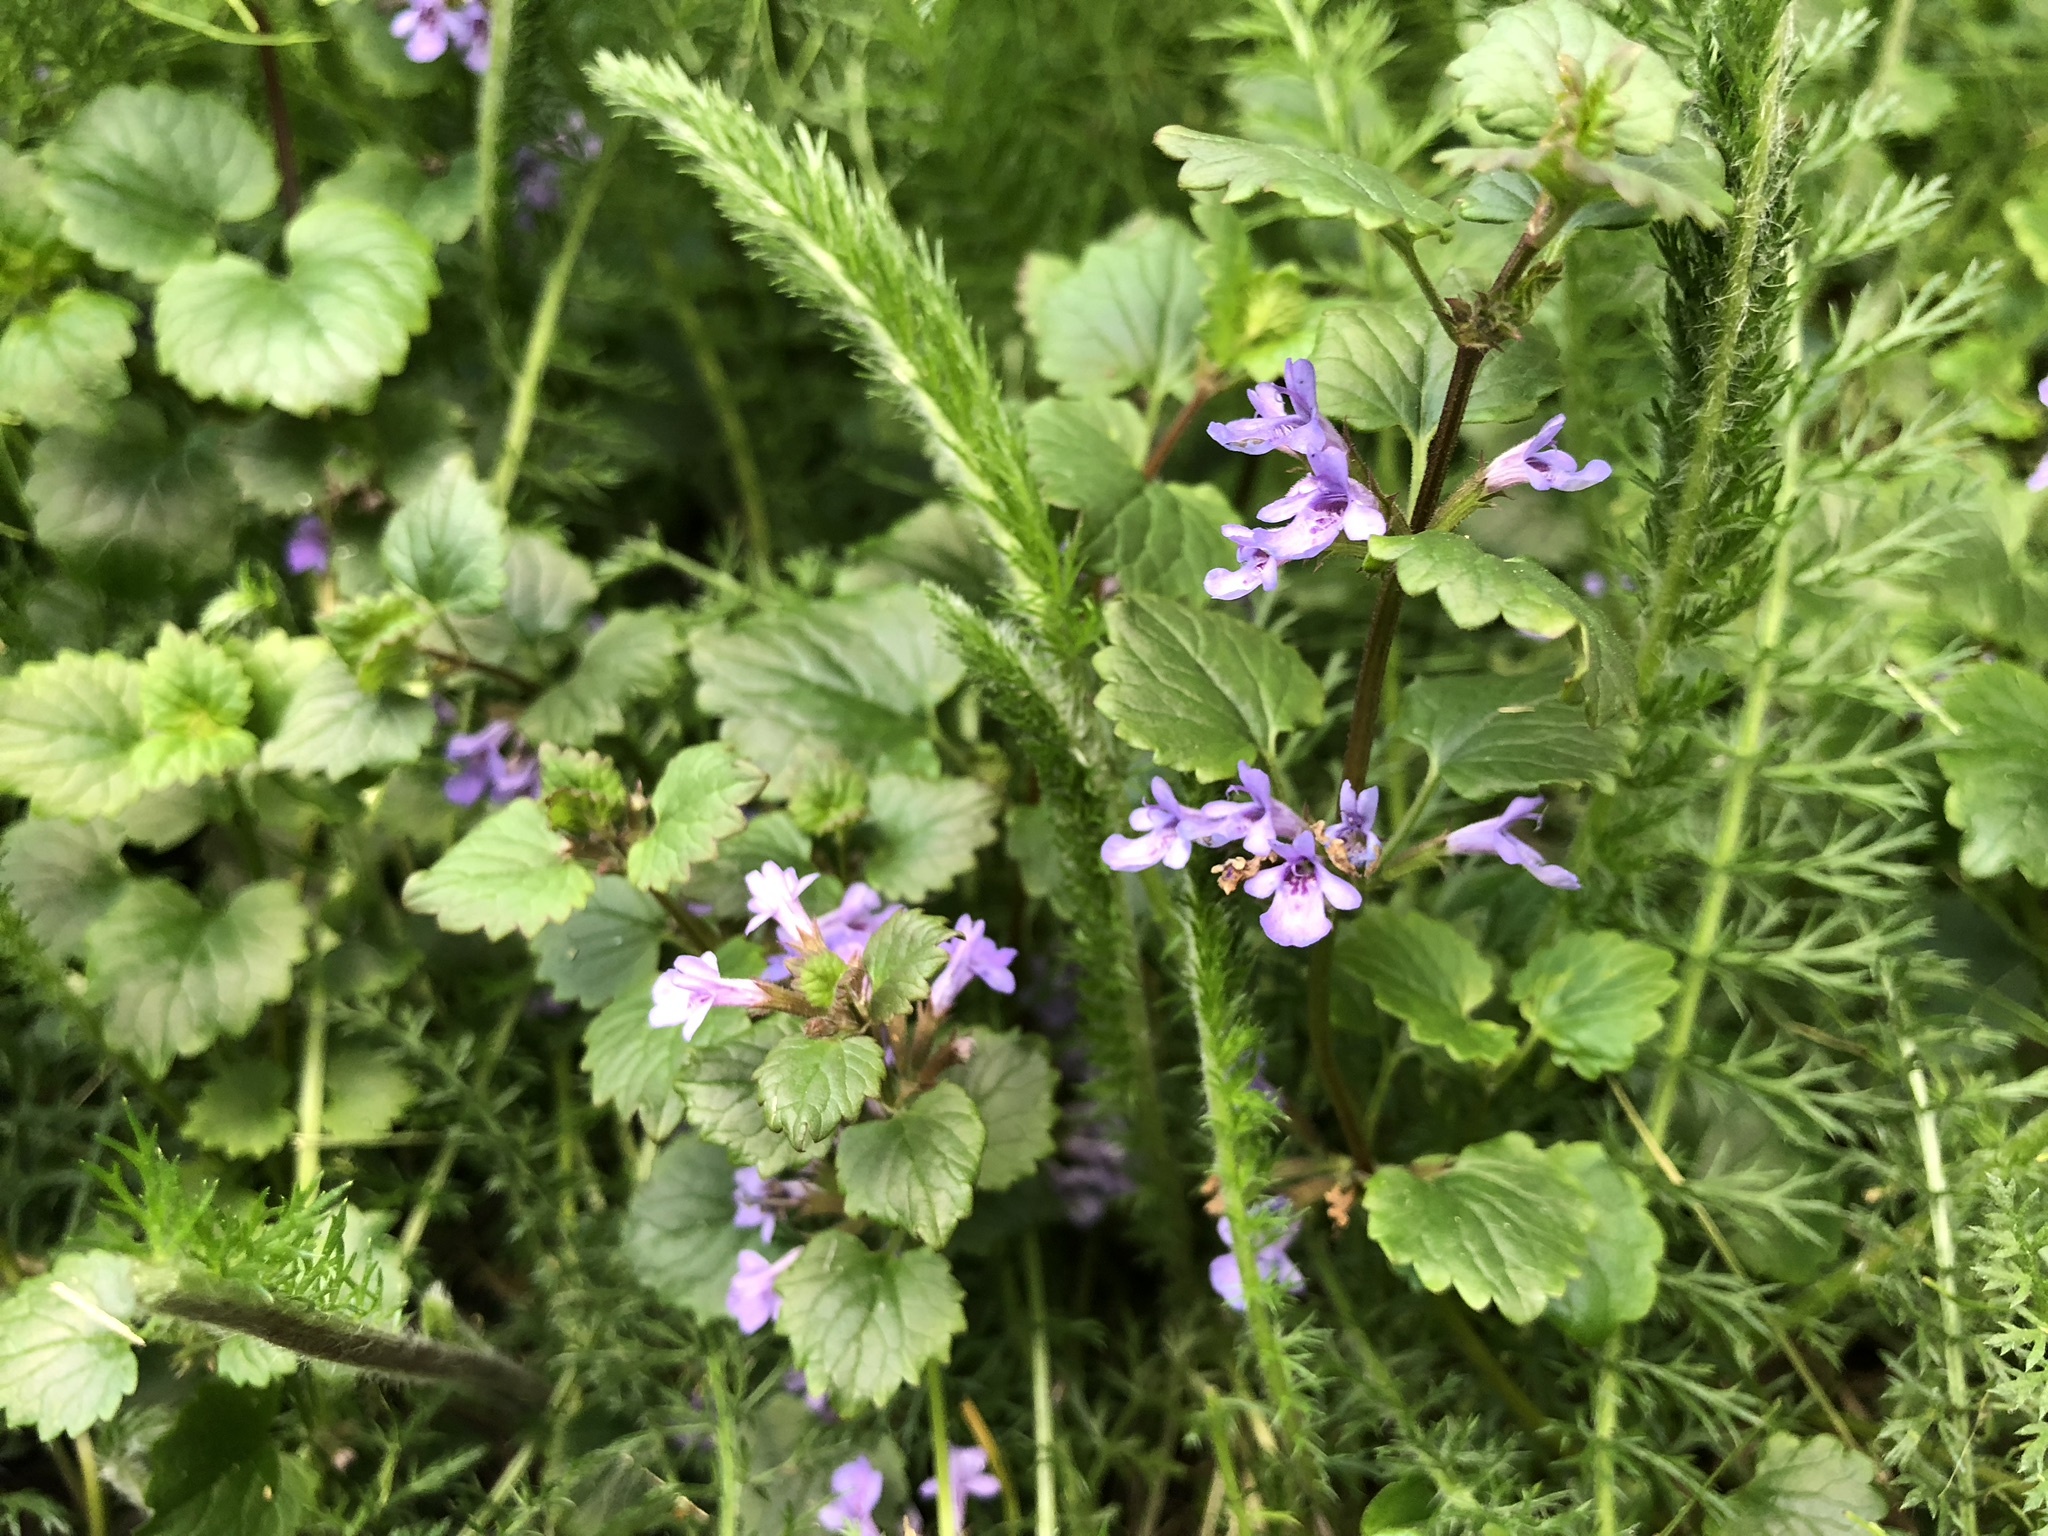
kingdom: Plantae
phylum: Tracheophyta
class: Magnoliopsida
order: Lamiales
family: Lamiaceae
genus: Glechoma
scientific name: Glechoma hederacea
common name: Ground ivy
